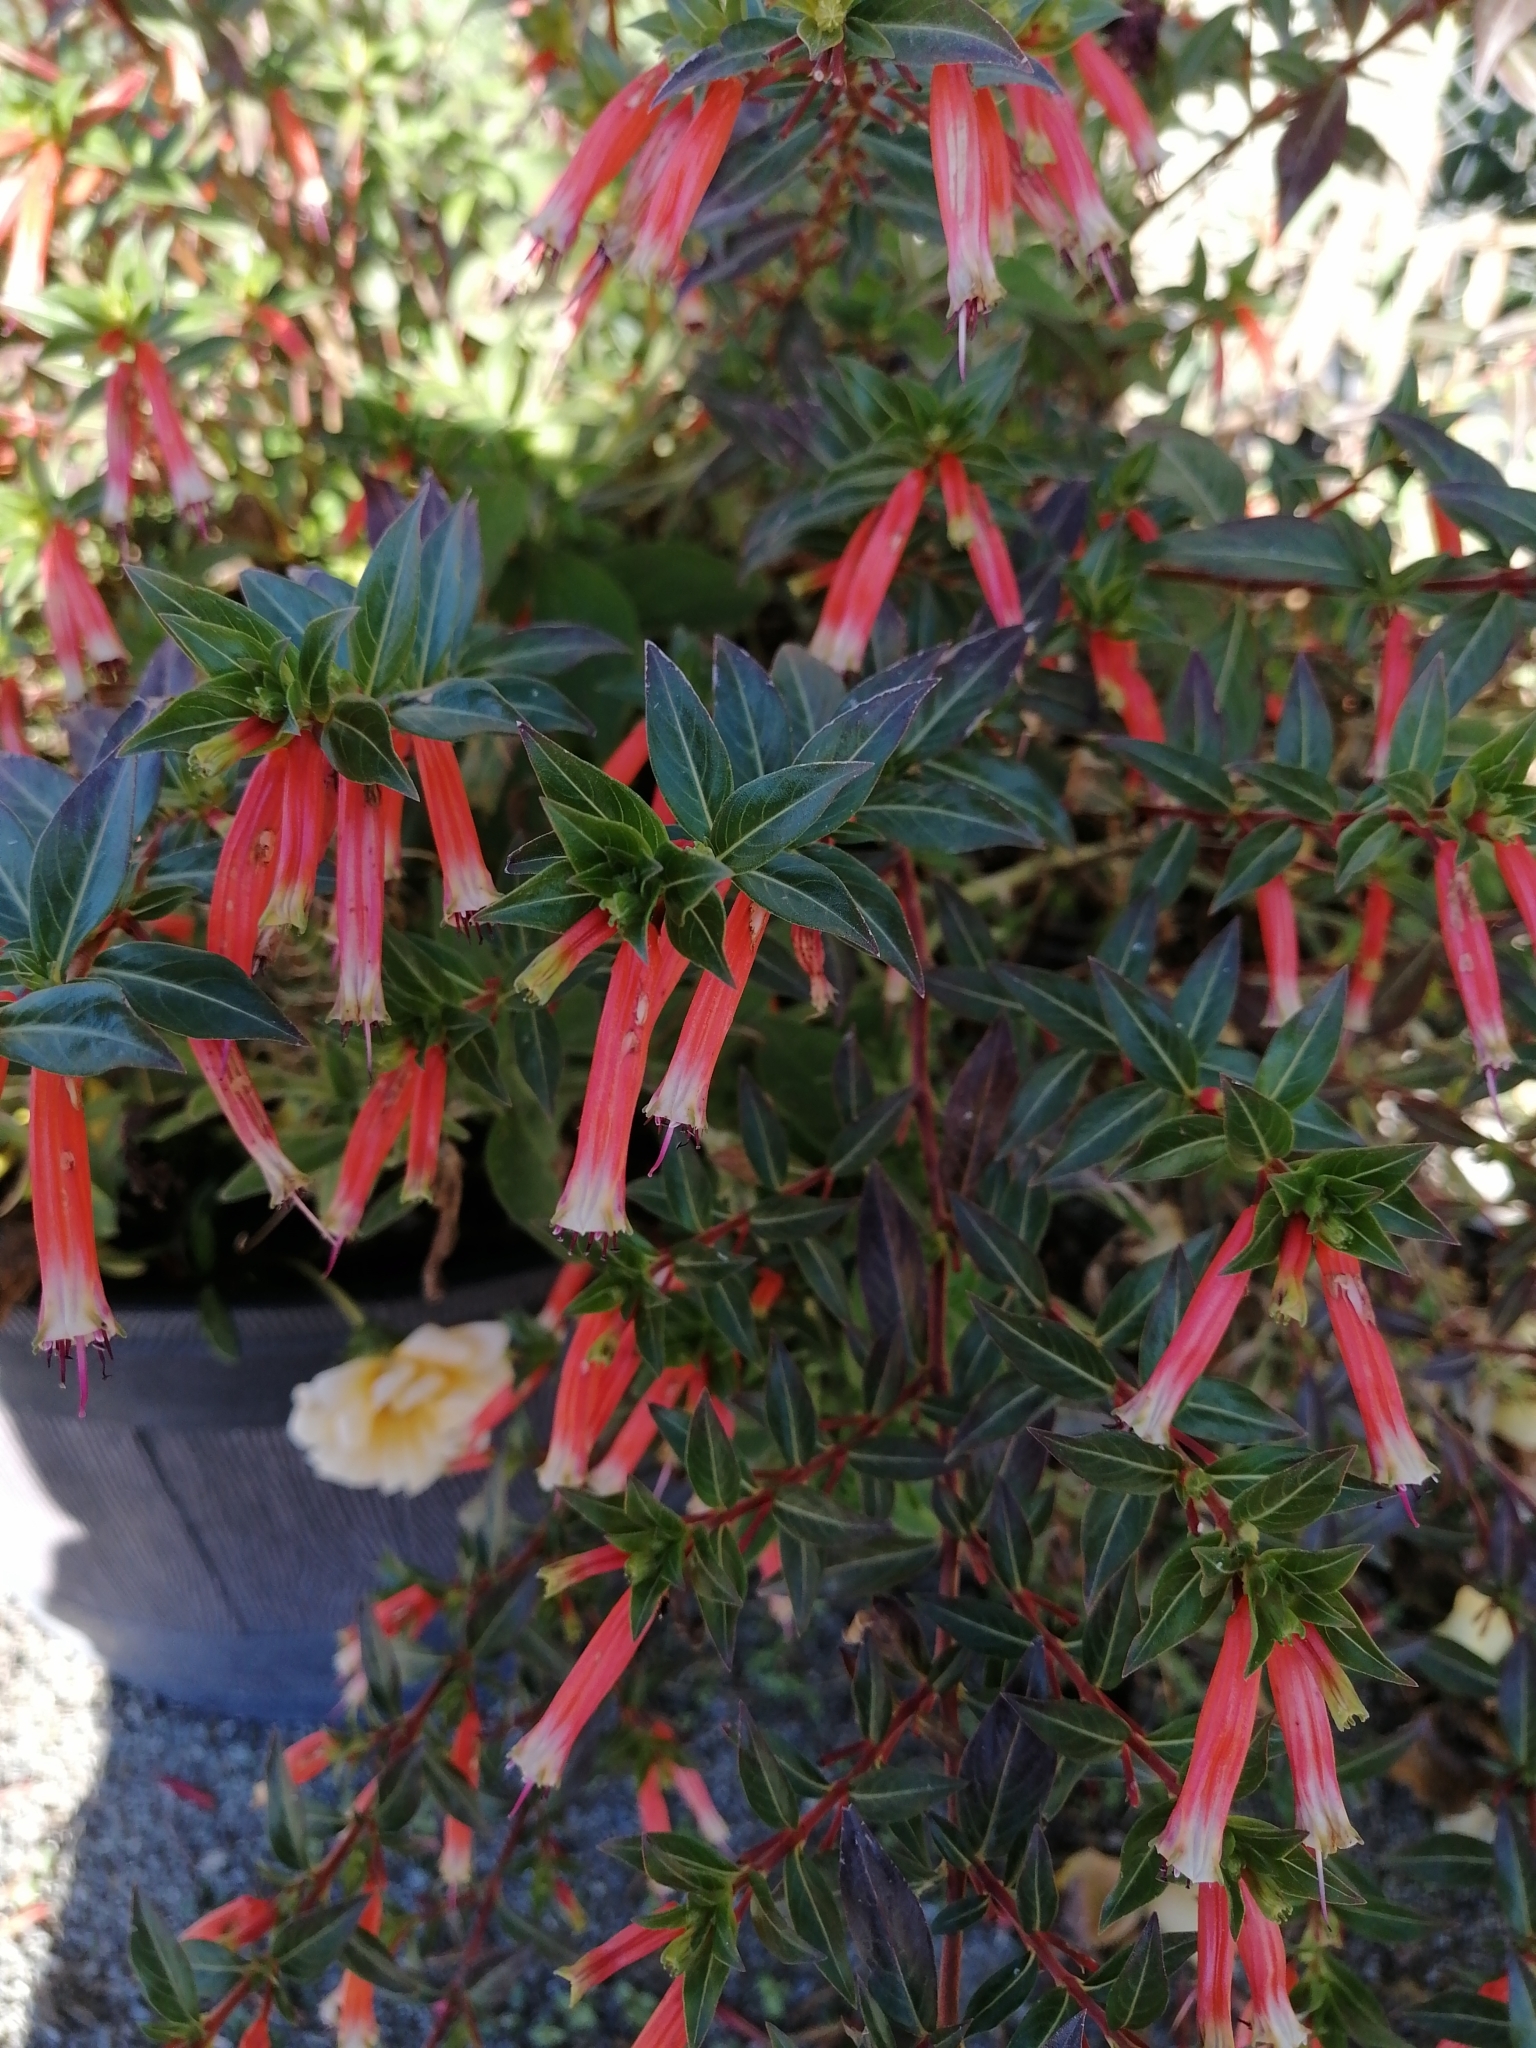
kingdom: Plantae
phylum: Tracheophyta
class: Magnoliopsida
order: Myrtales
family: Lythraceae
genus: Cuphea
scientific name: Cuphea ignea
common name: Cigar flower
